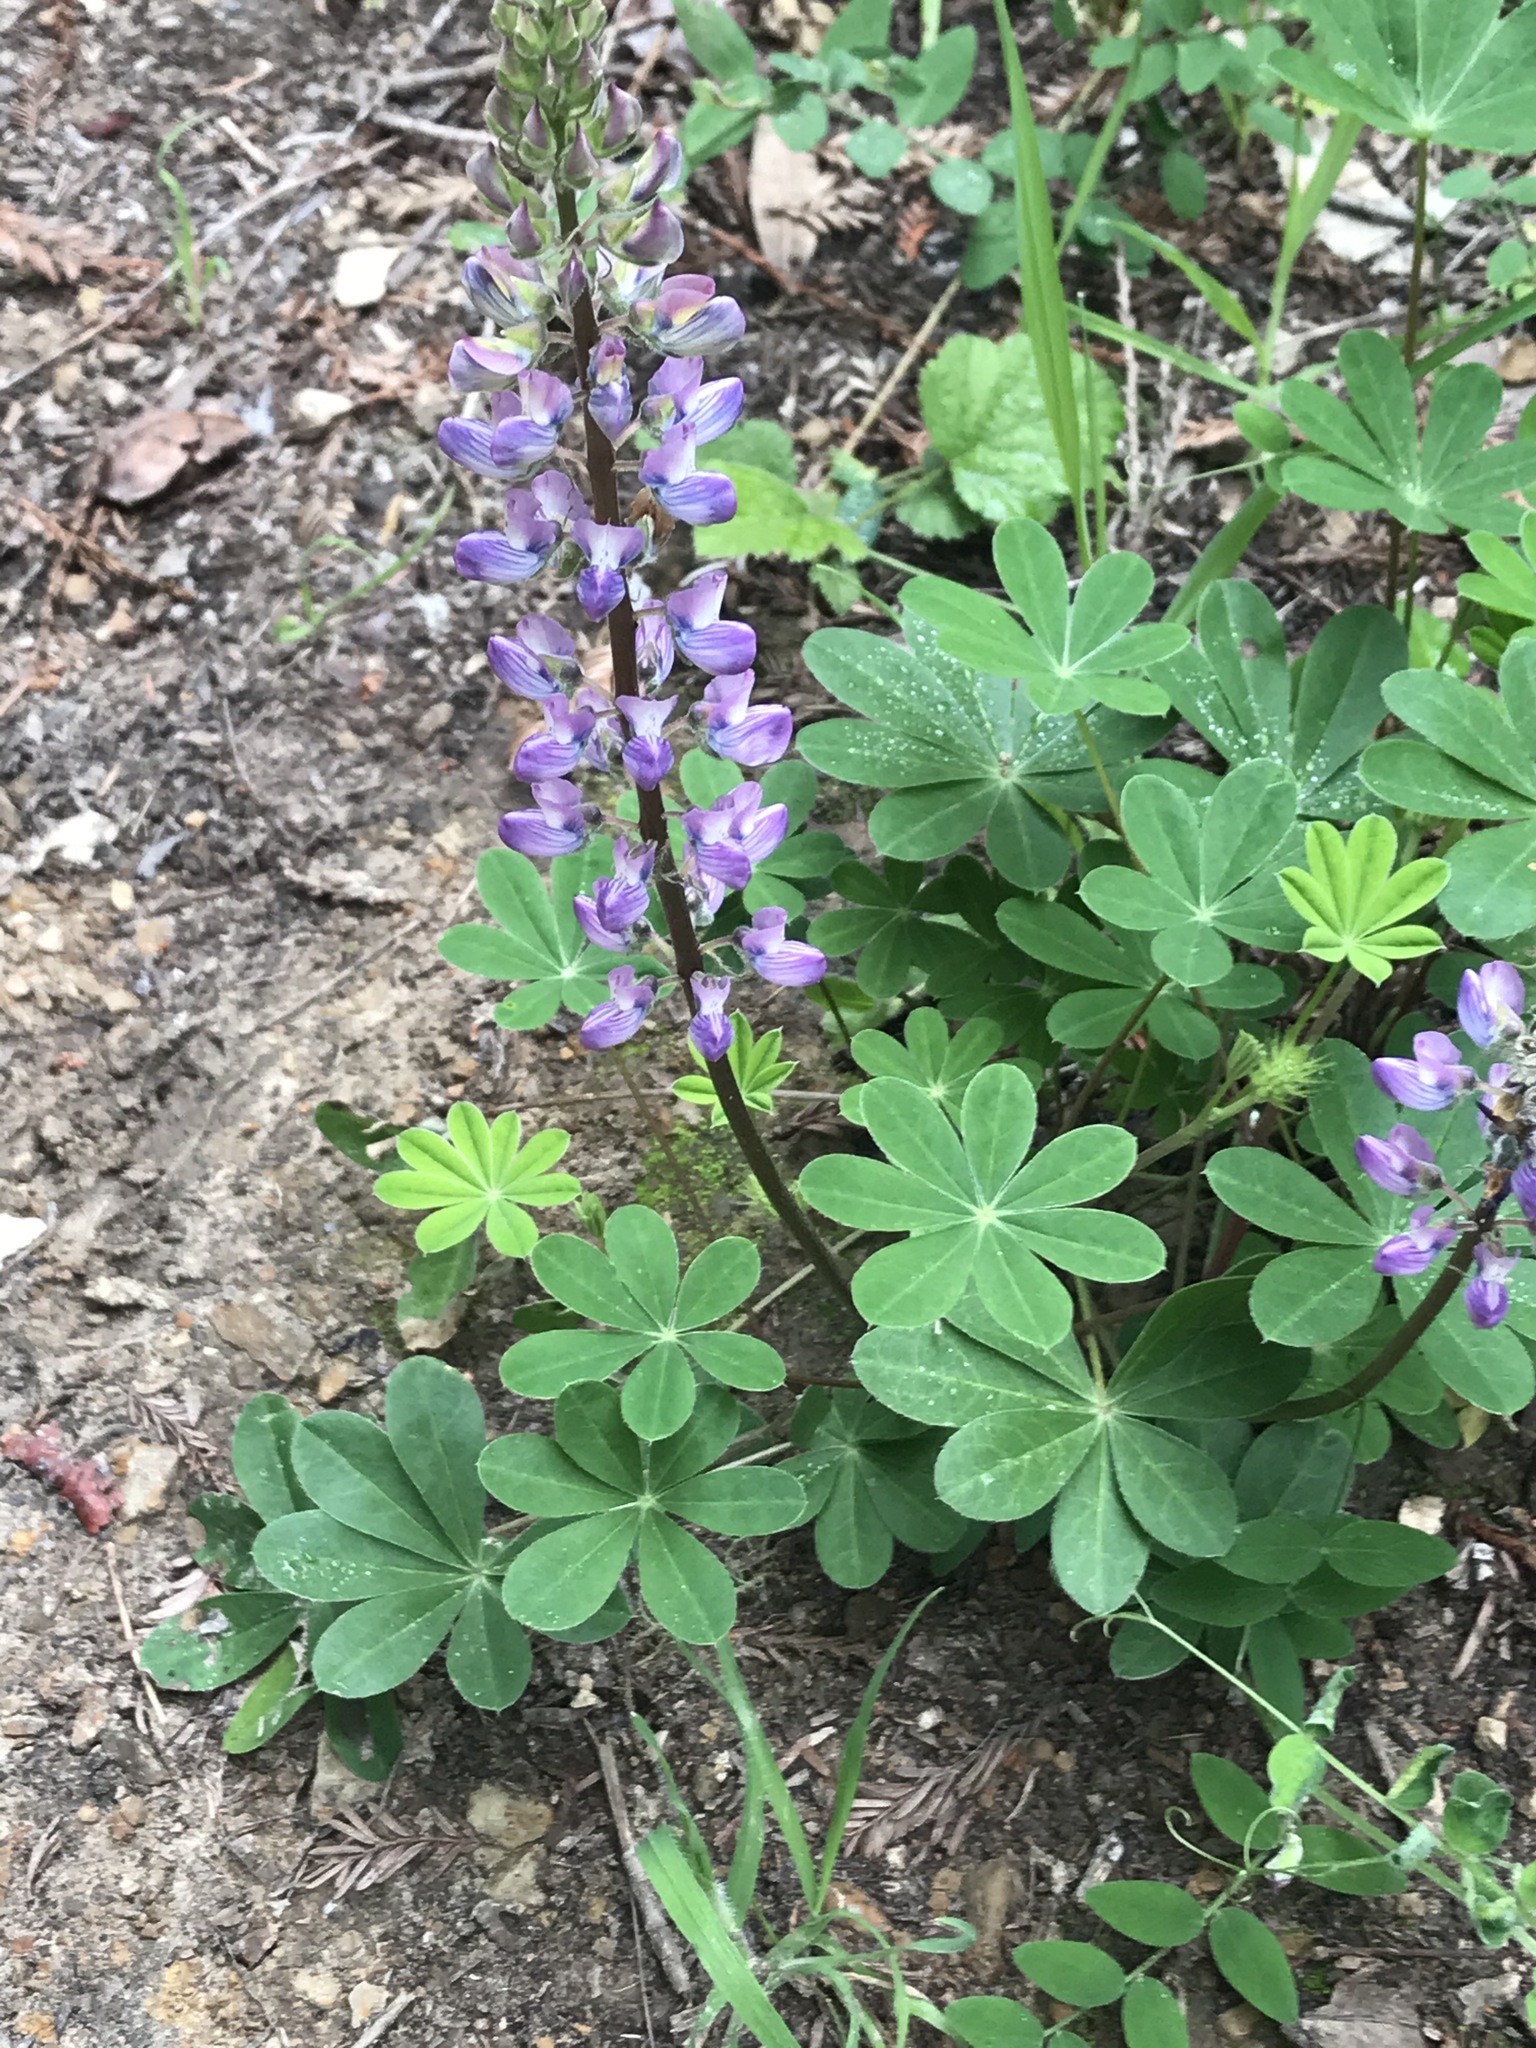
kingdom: Plantae
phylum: Tracheophyta
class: Magnoliopsida
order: Fabales
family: Fabaceae
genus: Lupinus
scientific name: Lupinus latifolius
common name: Broad-leaved lupine
